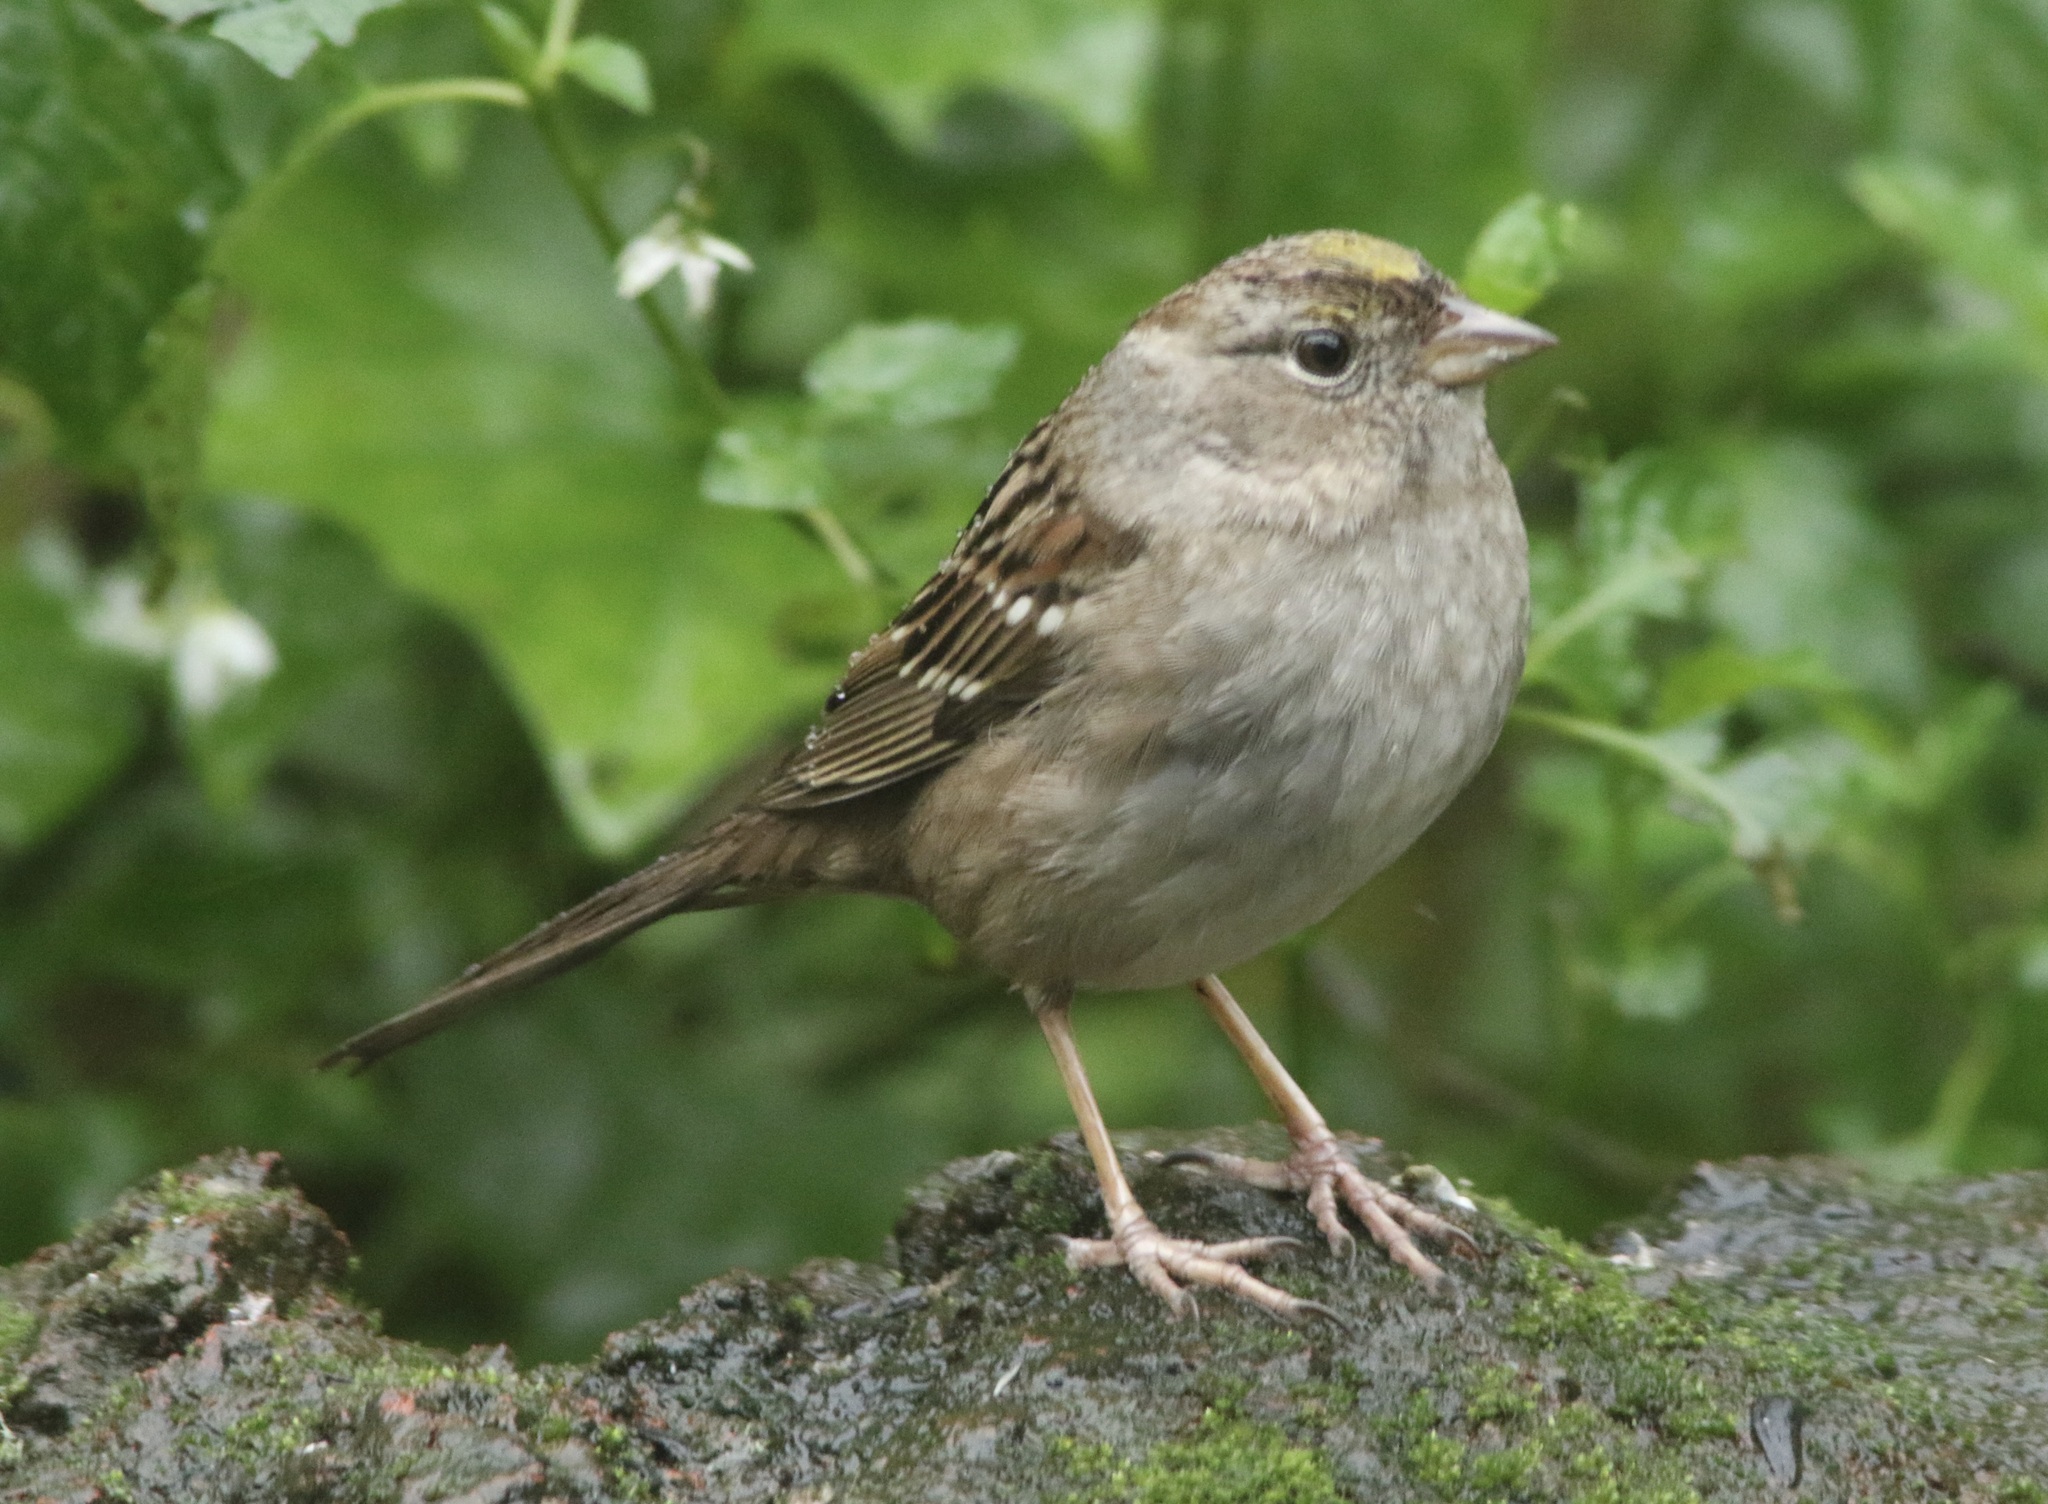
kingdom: Animalia
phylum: Chordata
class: Aves
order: Passeriformes
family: Passerellidae
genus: Zonotrichia
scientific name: Zonotrichia atricapilla
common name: Golden-crowned sparrow
